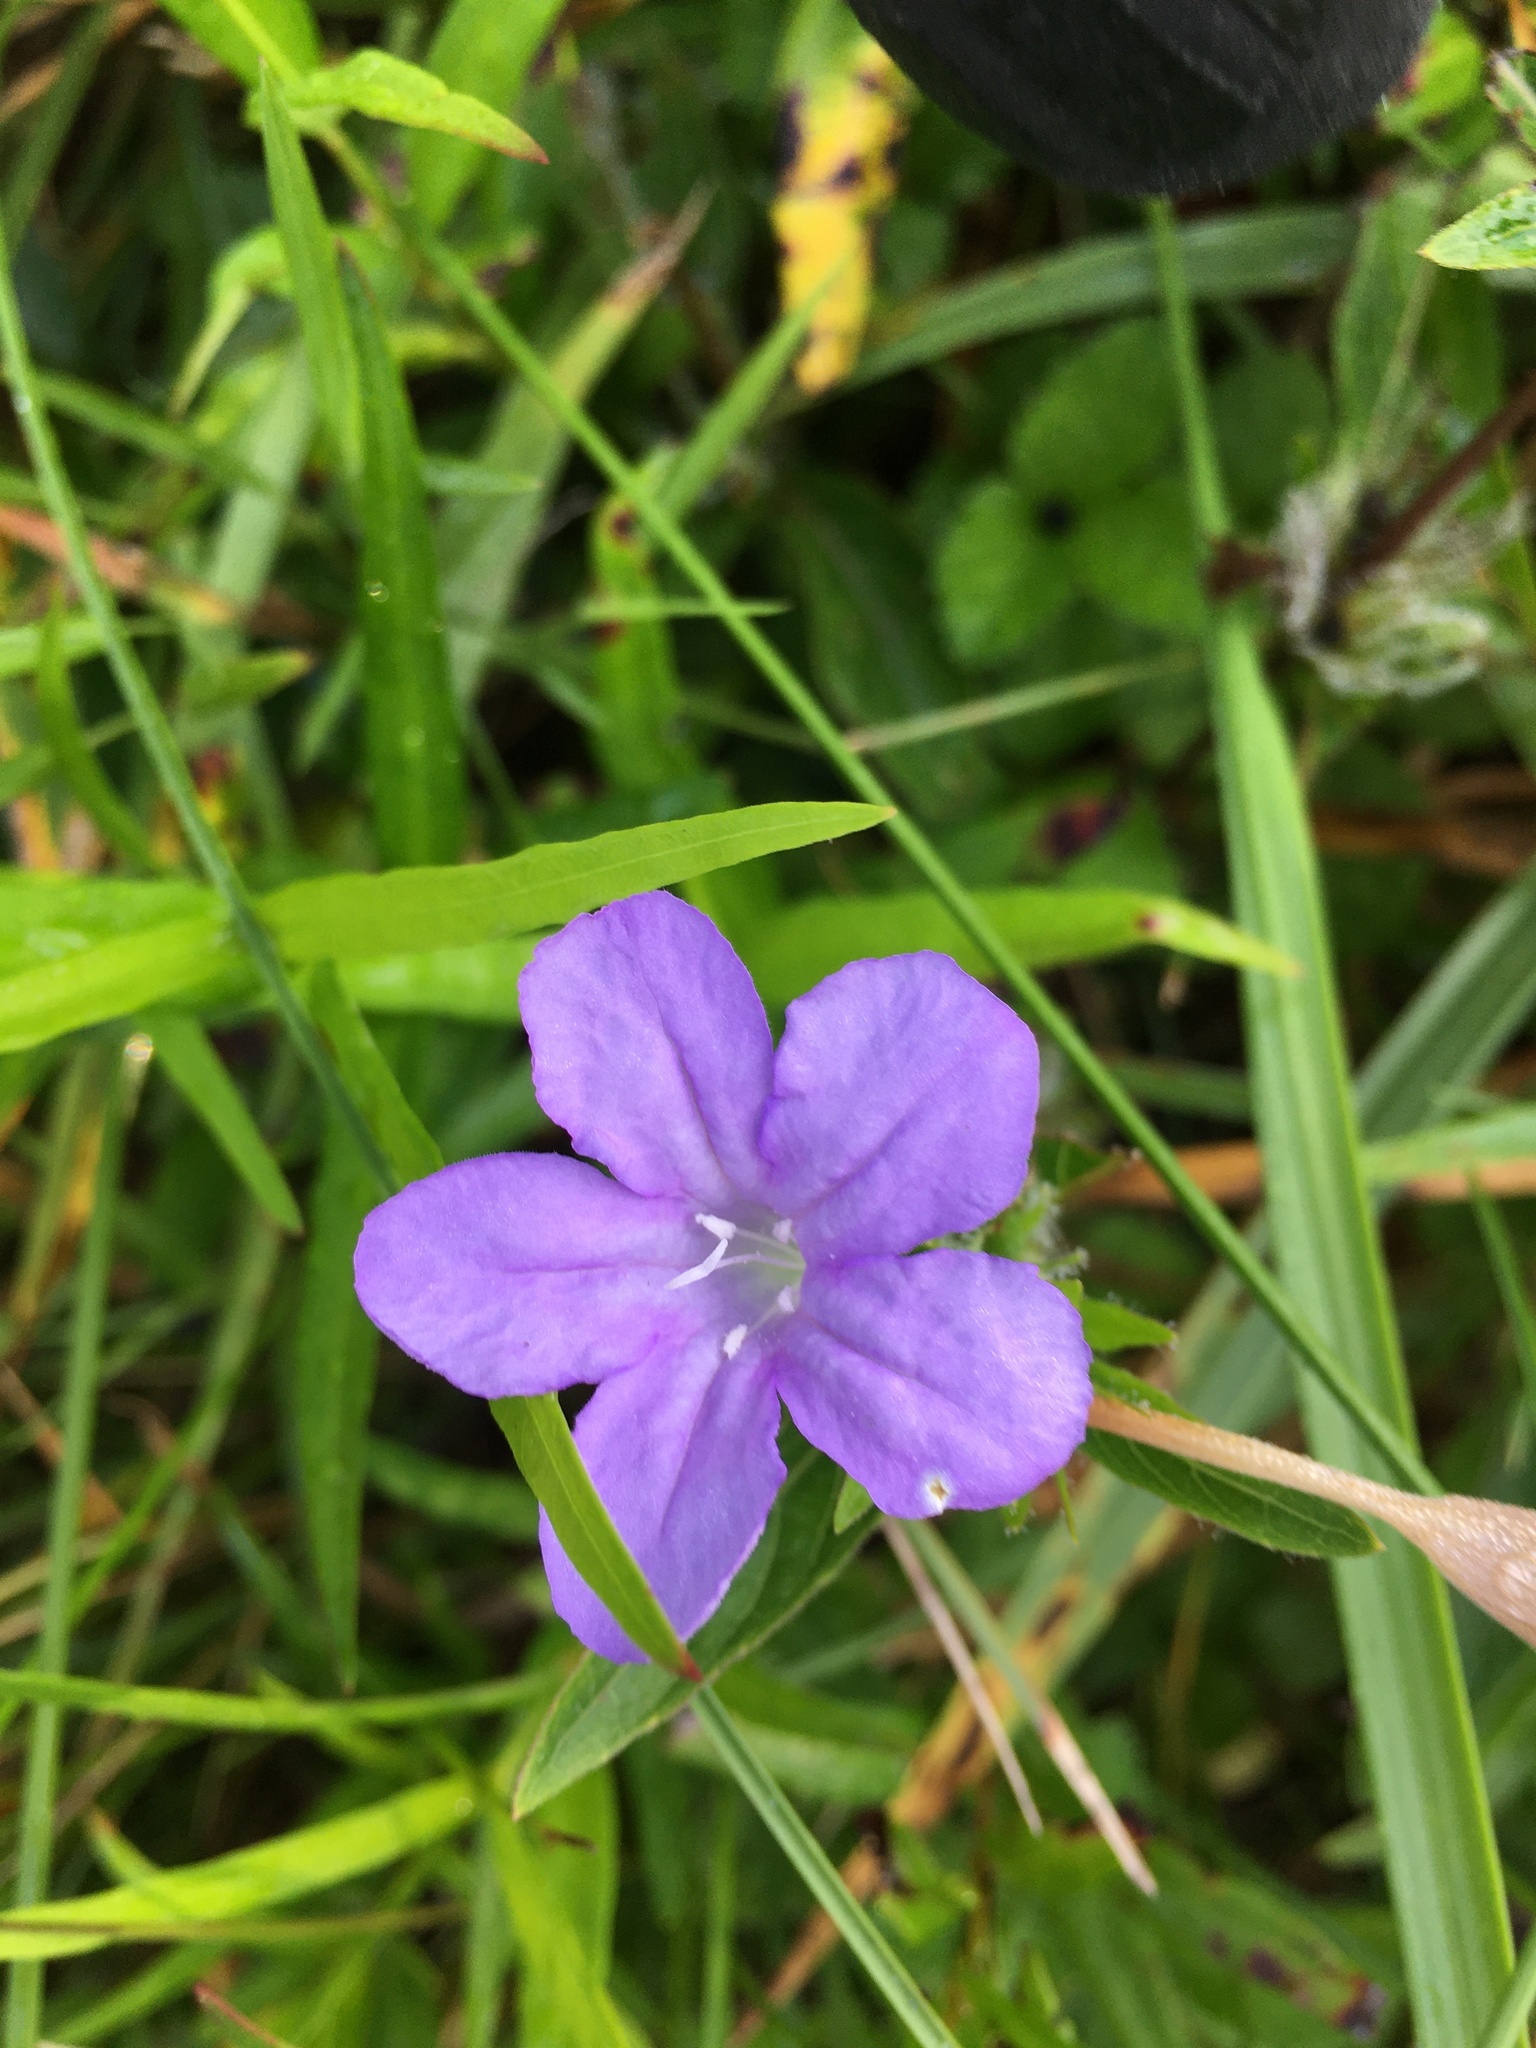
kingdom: Plantae
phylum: Tracheophyta
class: Magnoliopsida
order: Lamiales
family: Acanthaceae
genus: Ruellia
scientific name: Ruellia caroliniensis
